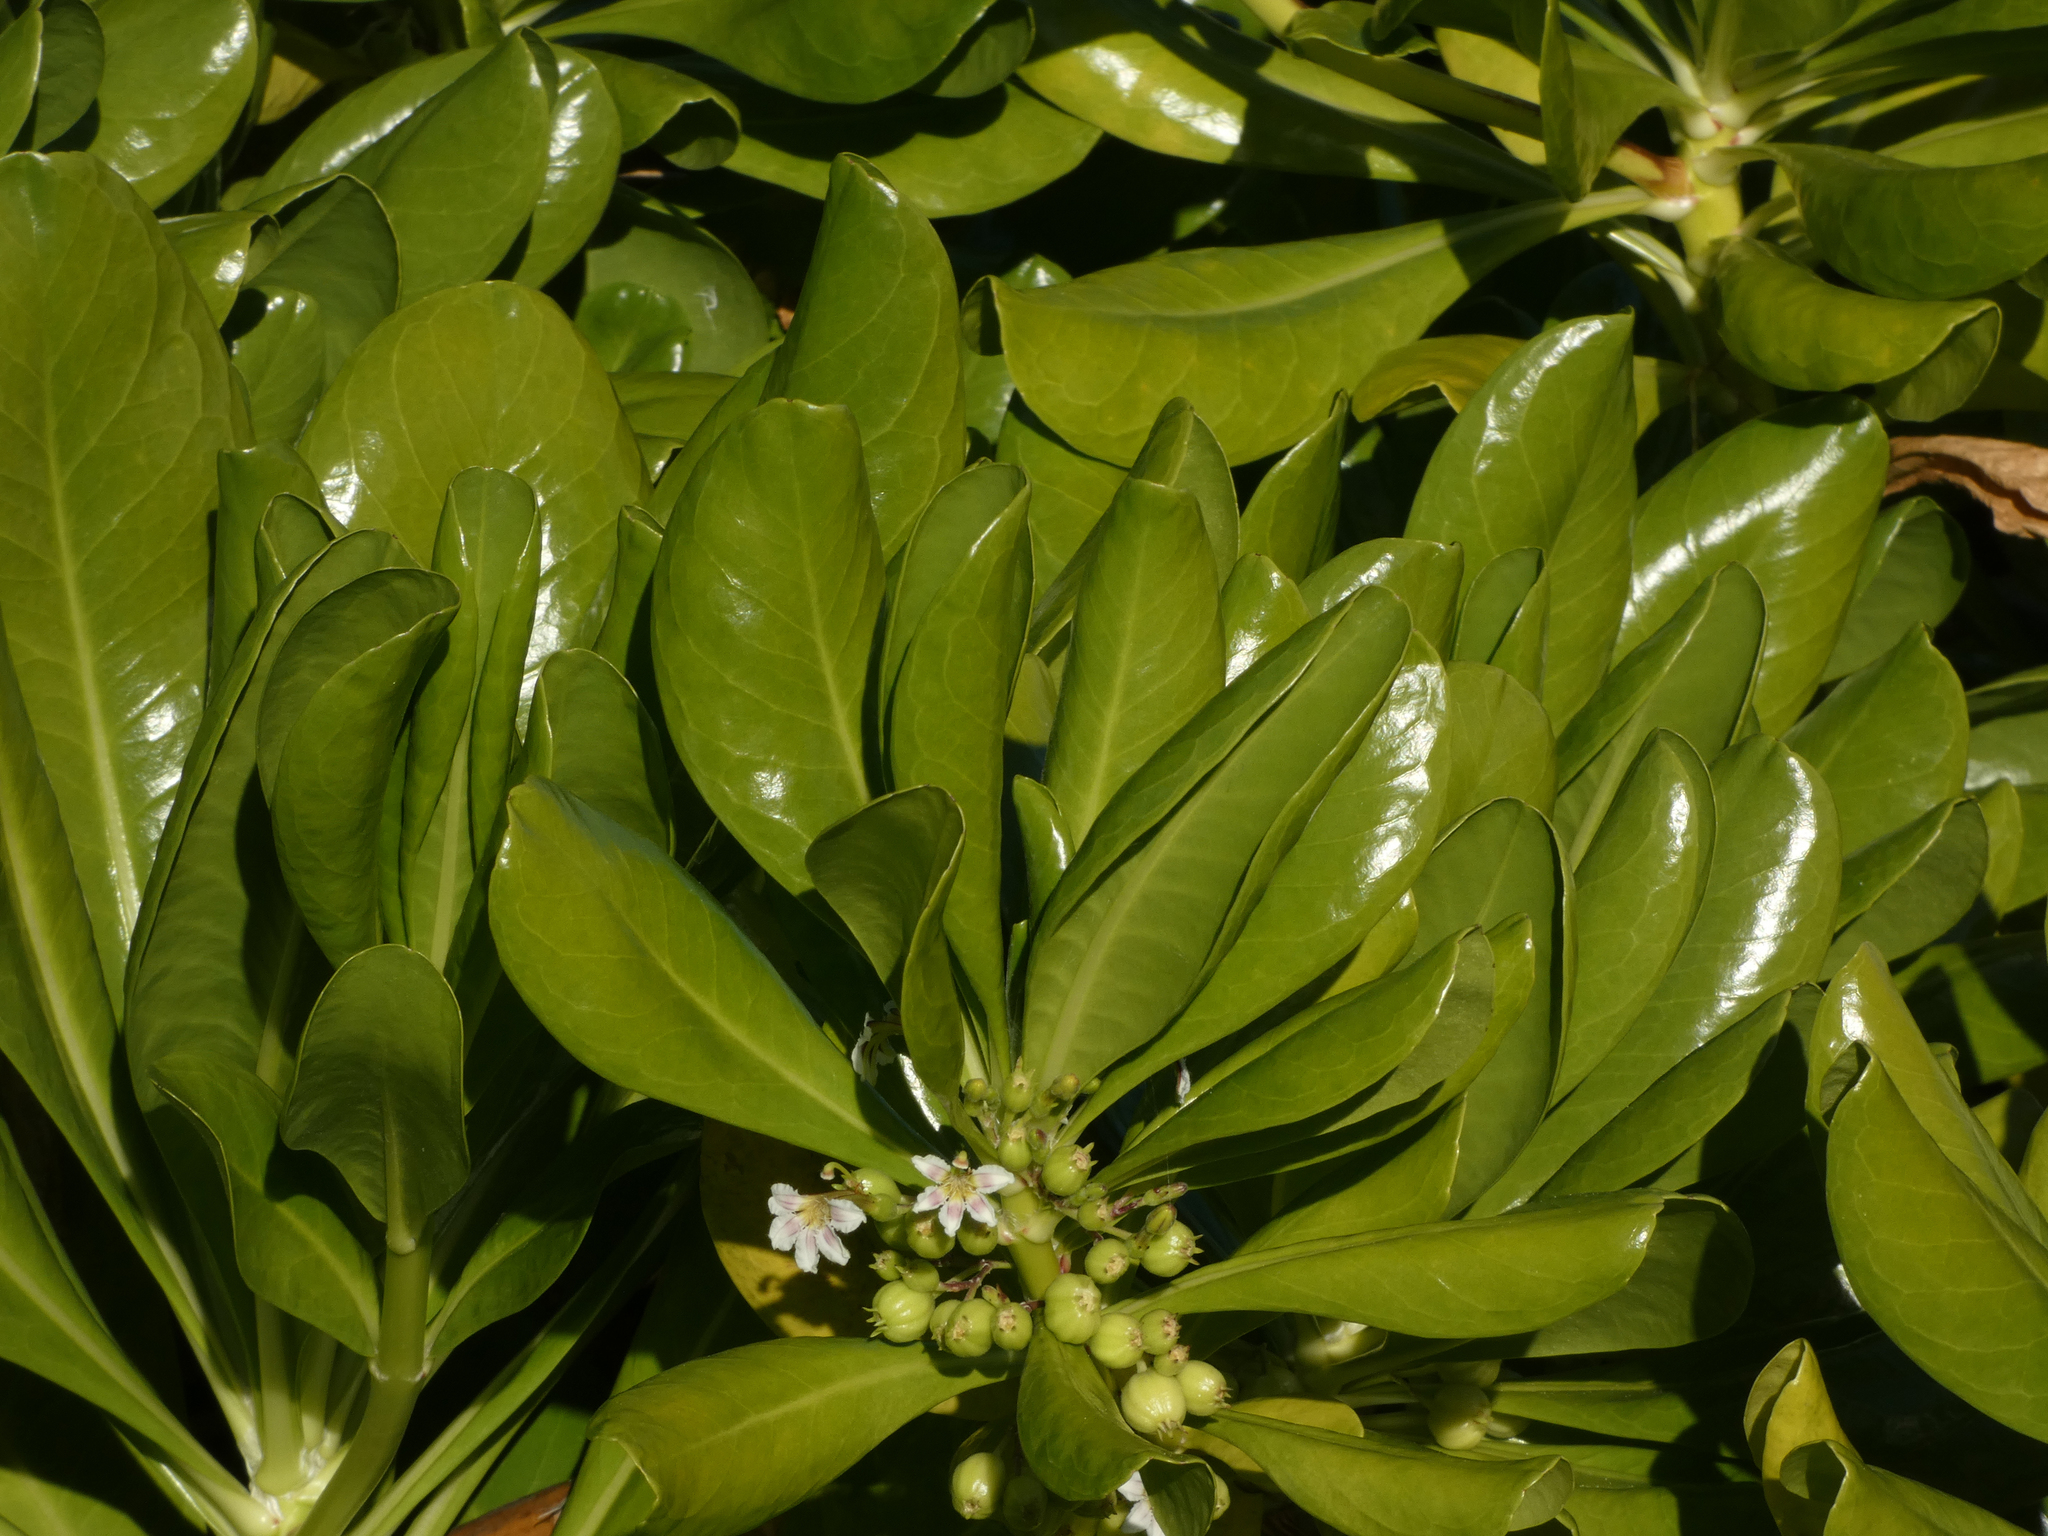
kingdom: Plantae
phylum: Tracheophyta
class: Magnoliopsida
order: Asterales
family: Goodeniaceae
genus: Scaevola
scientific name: Scaevola taccada
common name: Sea lettucetree
